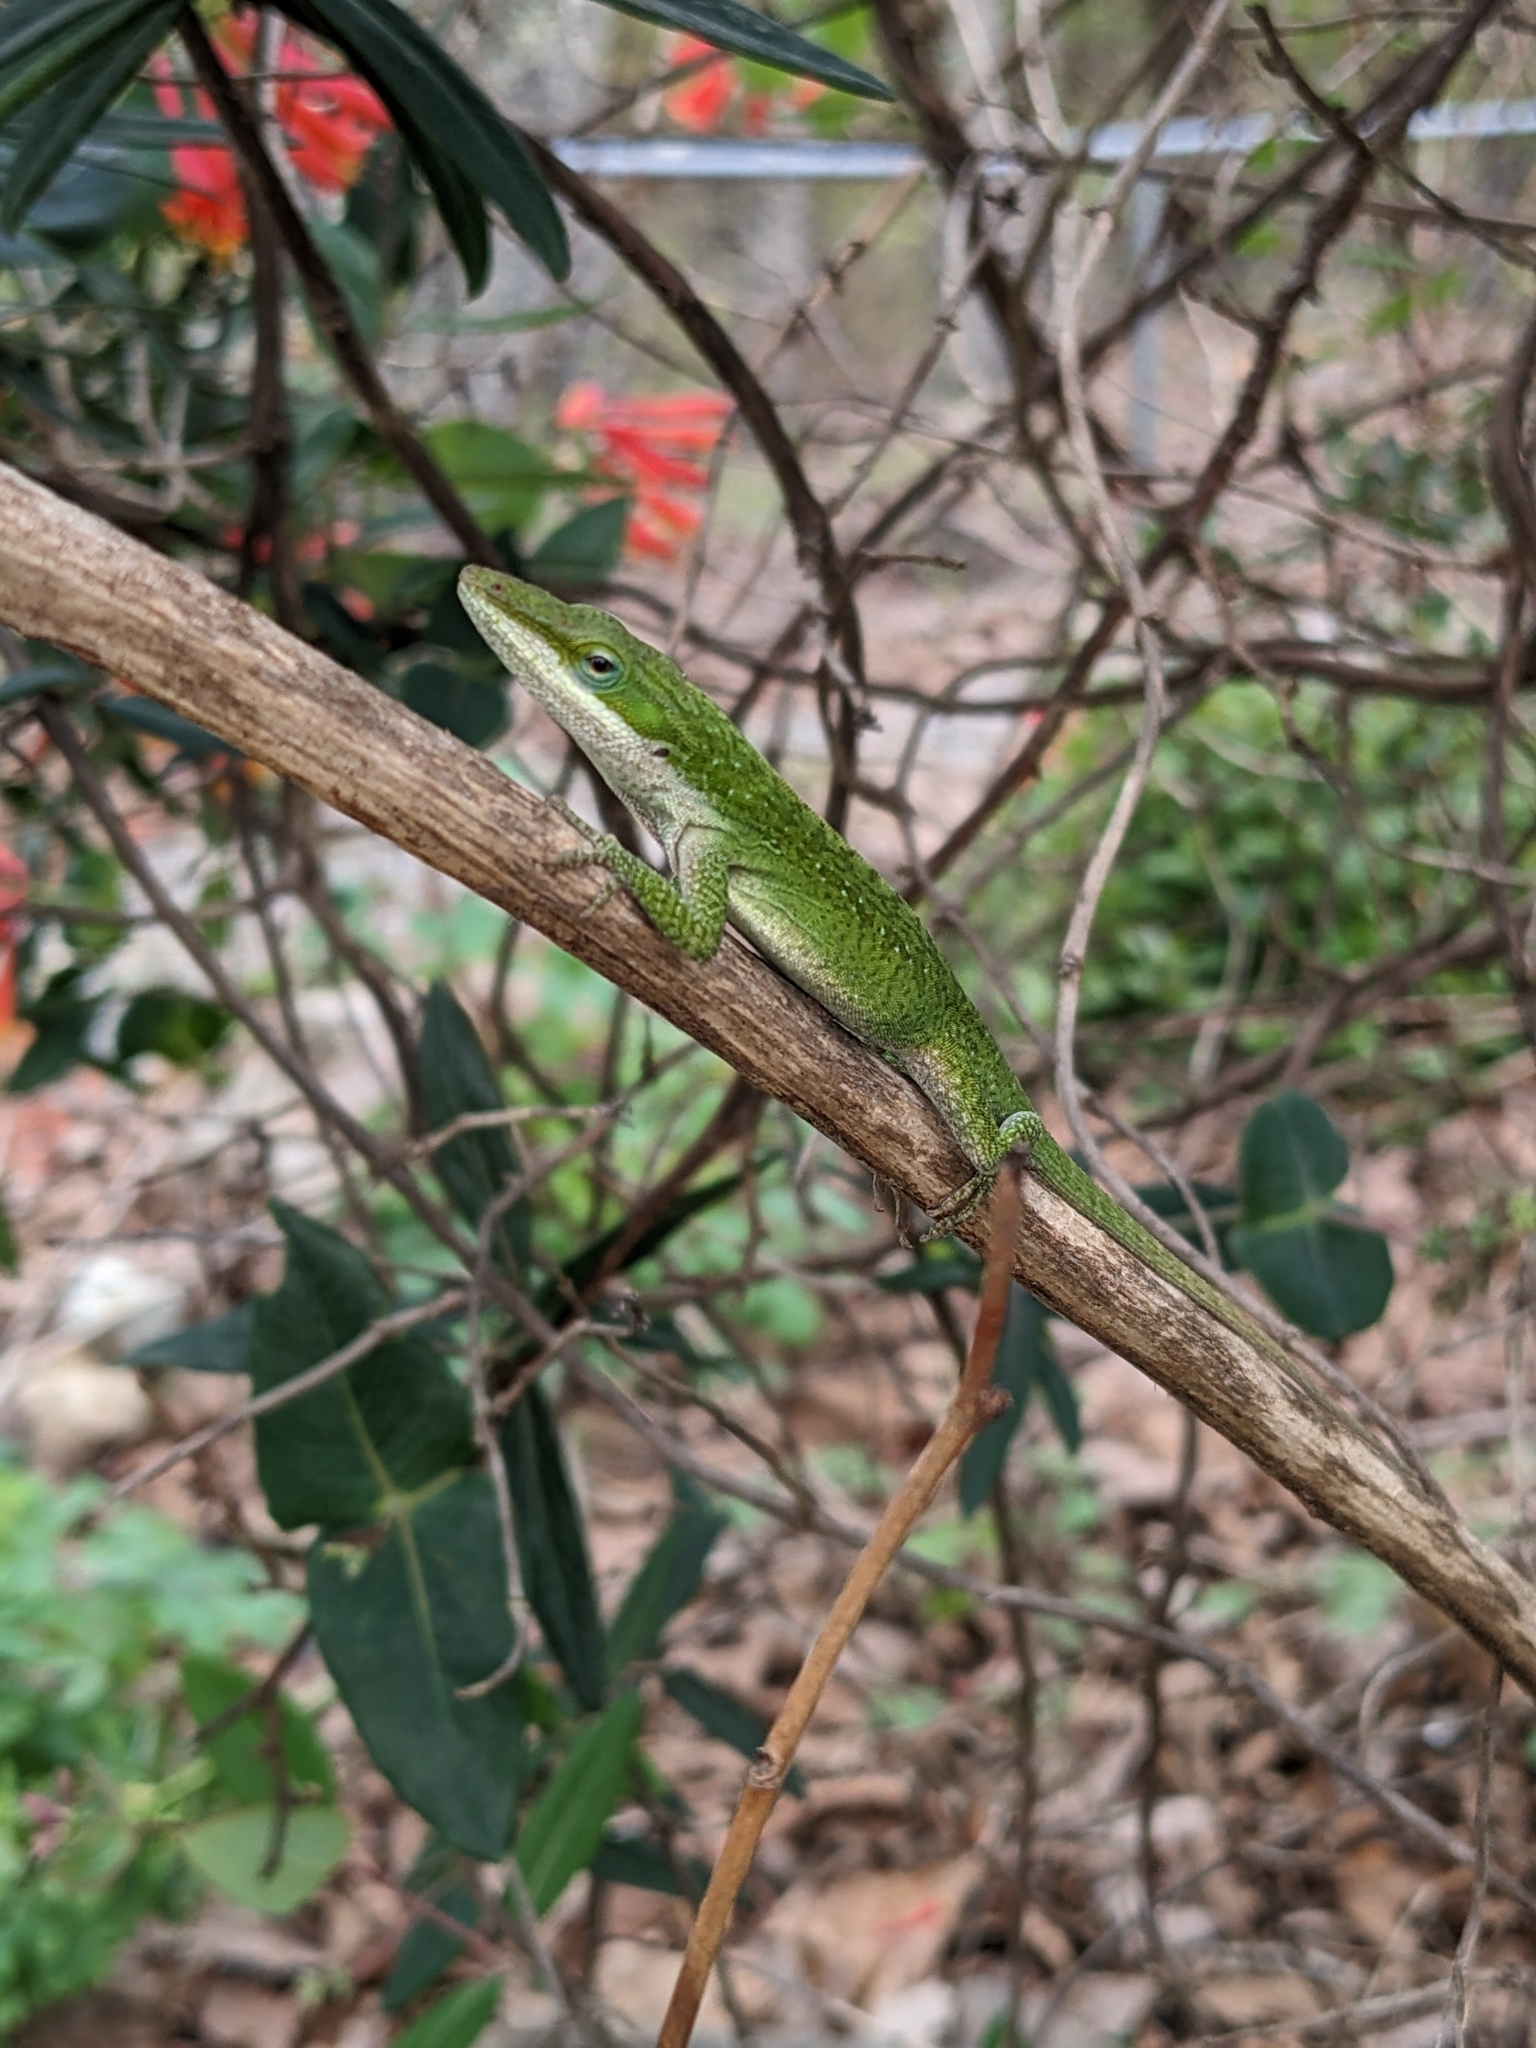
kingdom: Animalia
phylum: Chordata
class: Squamata
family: Dactyloidae
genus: Anolis
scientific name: Anolis carolinensis
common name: Green anole
